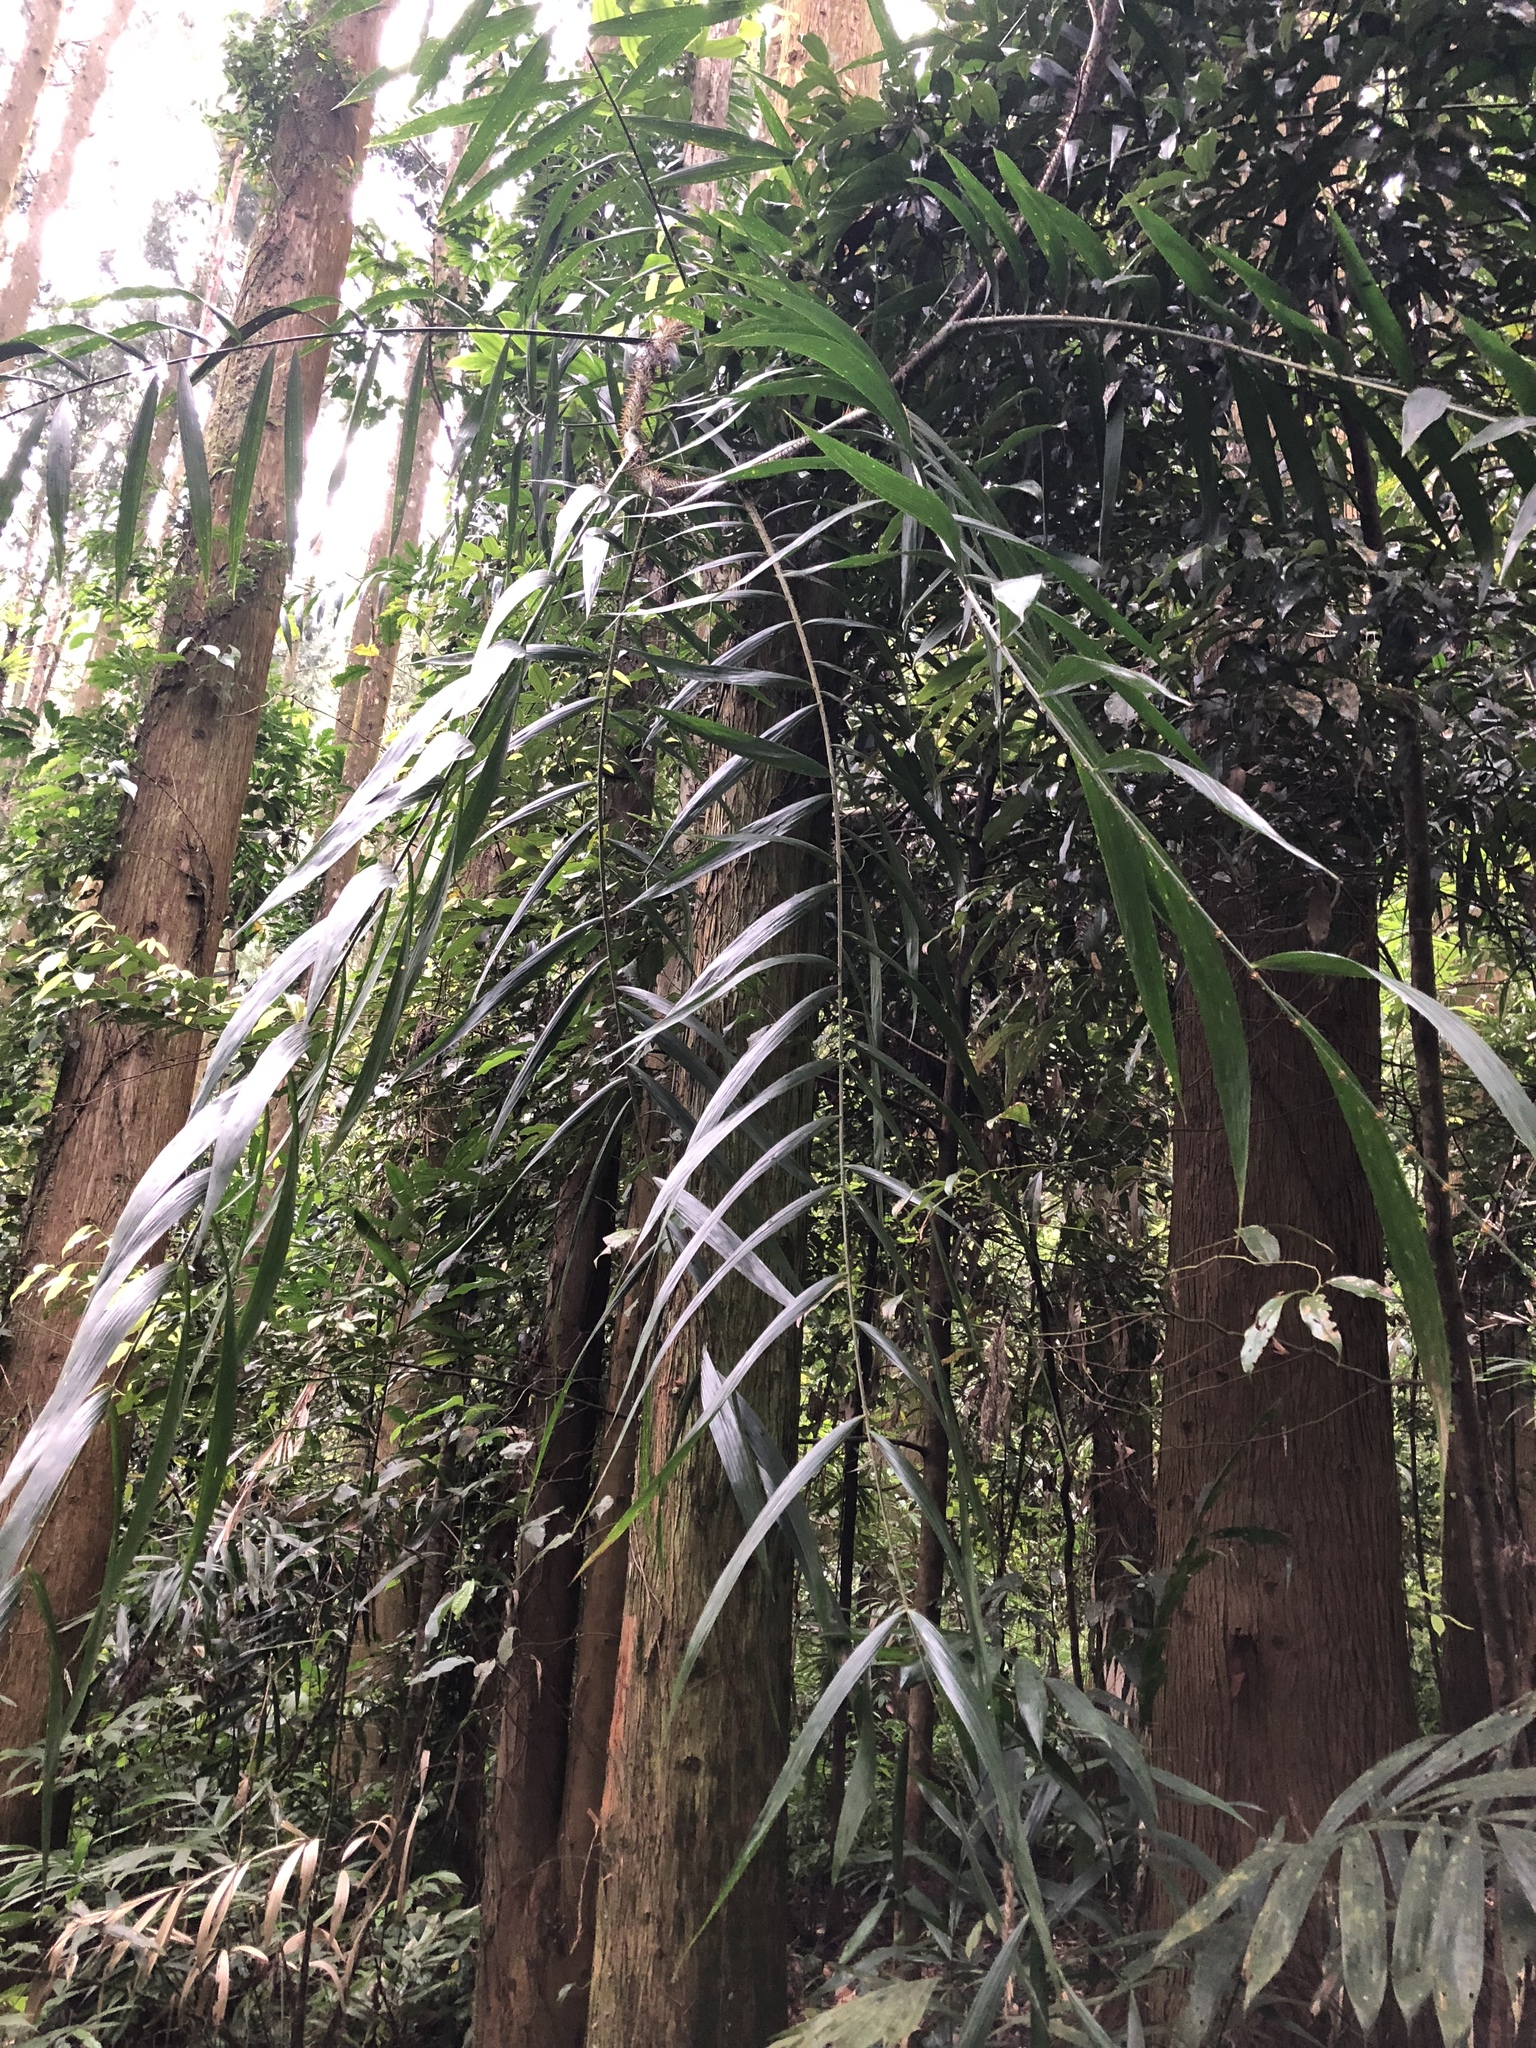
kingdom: Plantae
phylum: Tracheophyta
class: Liliopsida
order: Arecales
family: Arecaceae
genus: Calamus
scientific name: Calamus formosanus
